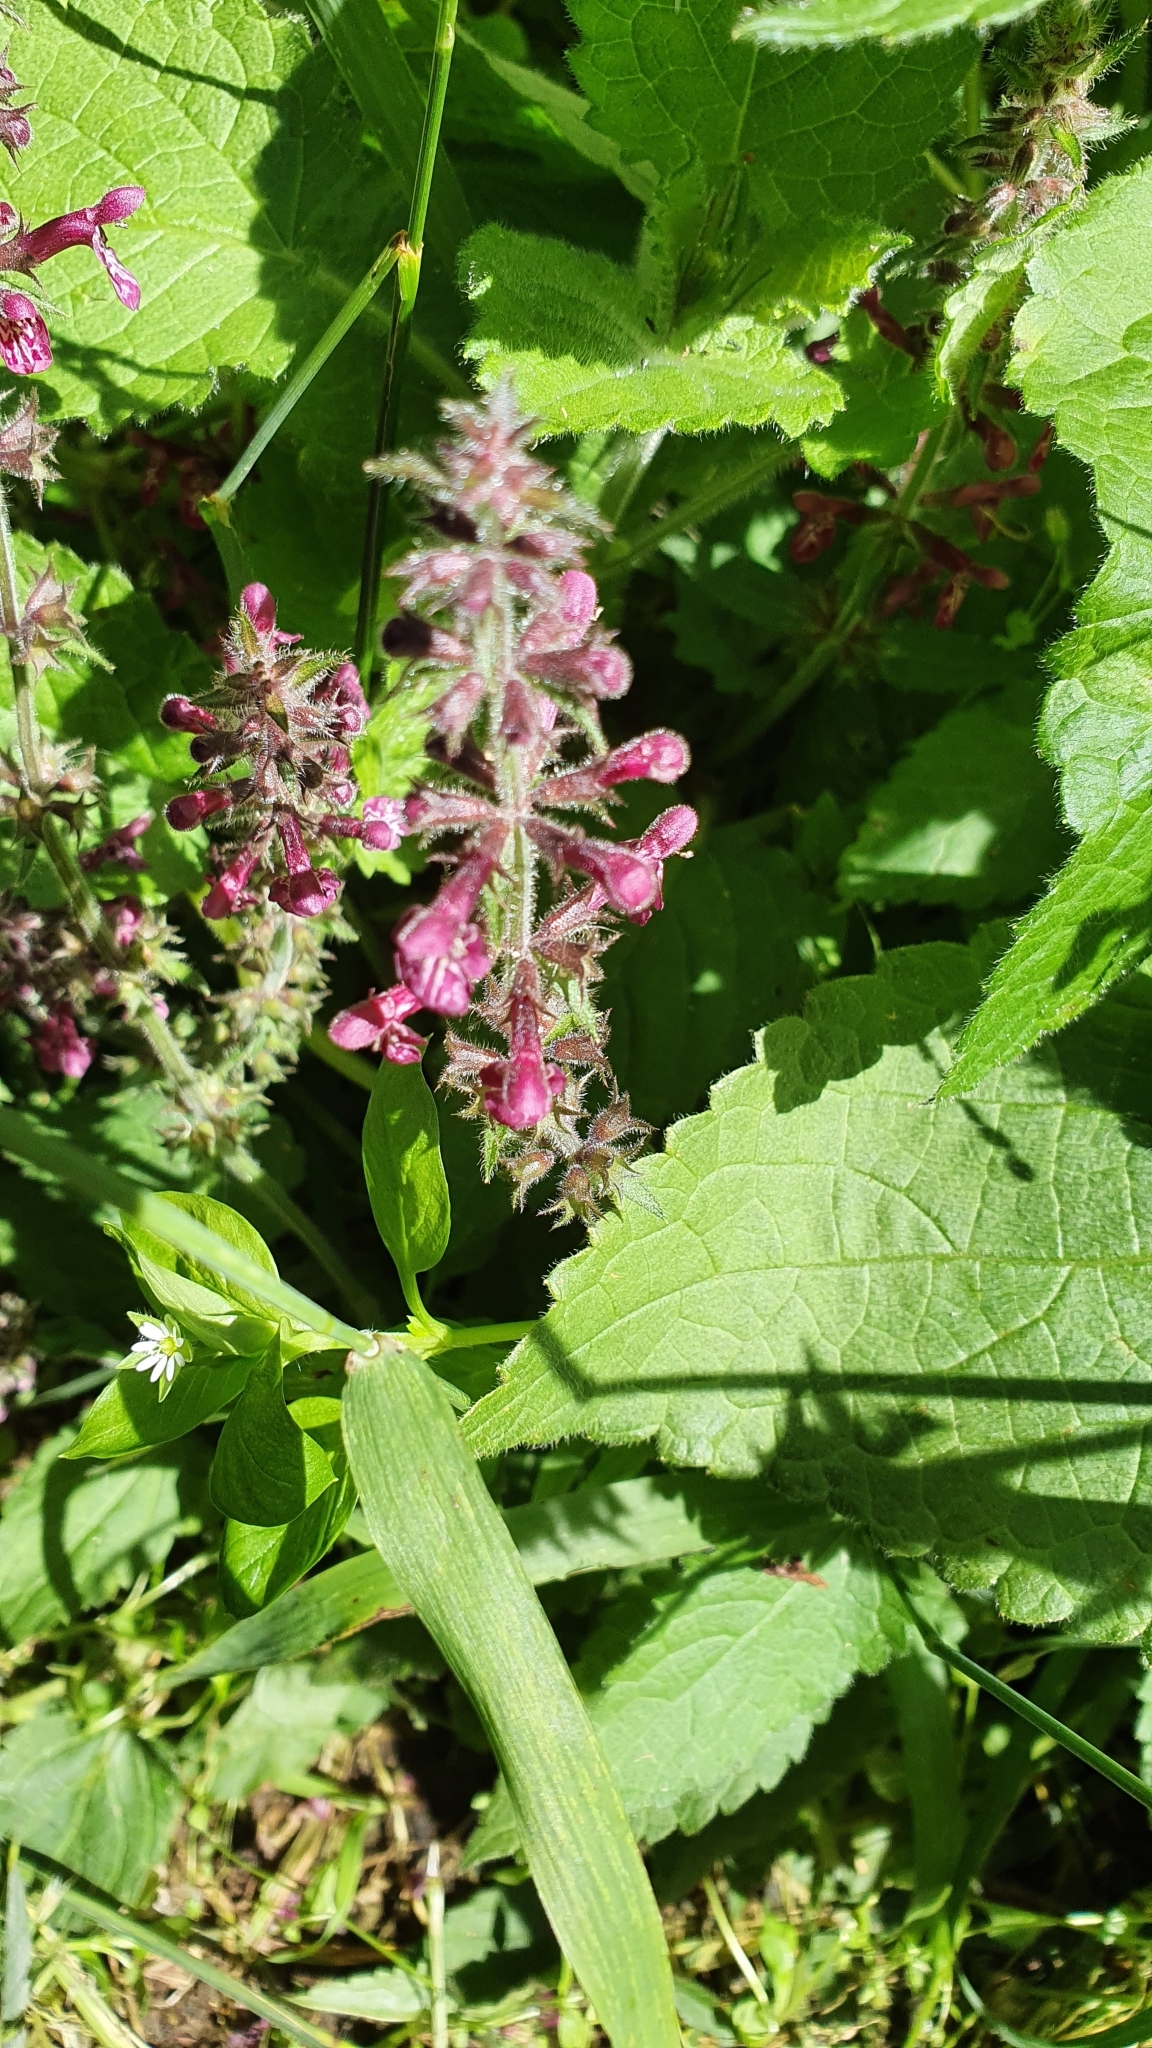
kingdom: Plantae
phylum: Tracheophyta
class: Magnoliopsida
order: Lamiales
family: Lamiaceae
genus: Stachys
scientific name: Stachys sylvatica
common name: Hedge woundwort
